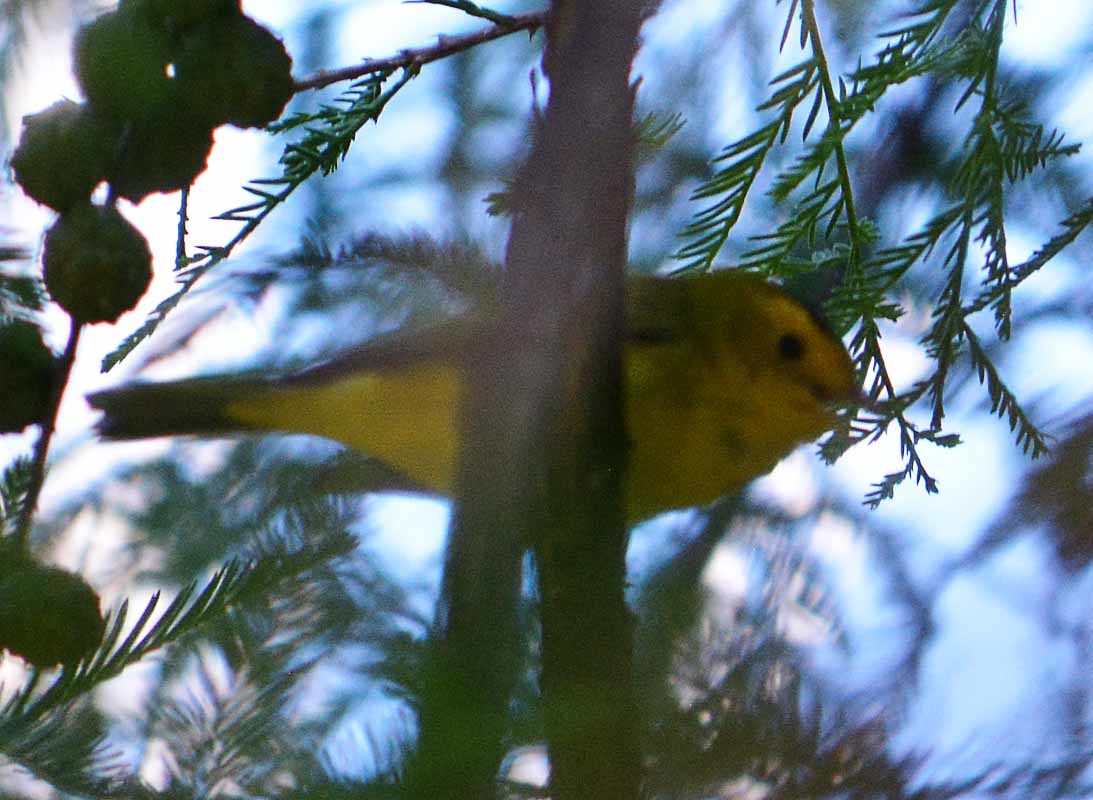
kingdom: Animalia
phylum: Chordata
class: Aves
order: Passeriformes
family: Parulidae
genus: Cardellina
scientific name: Cardellina pusilla
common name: Wilson's warbler
